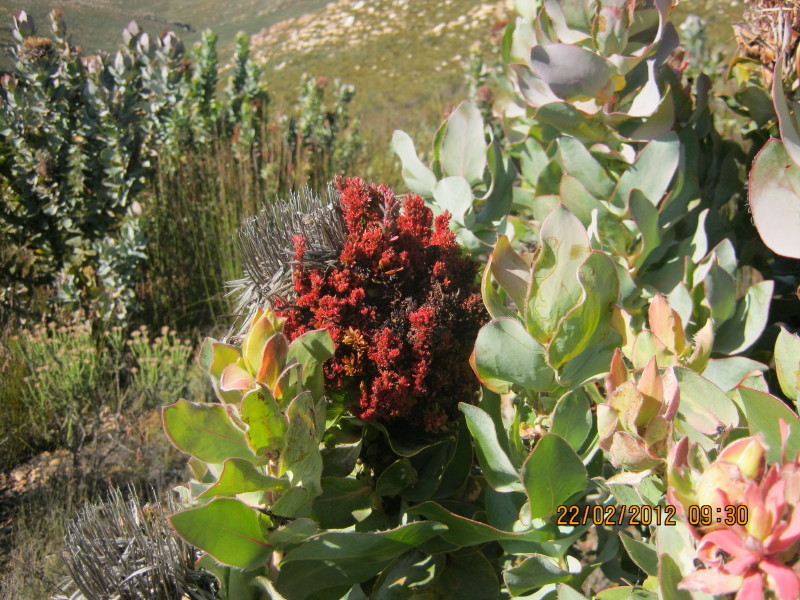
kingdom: Bacteria
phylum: Firmicutes
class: Bacilli
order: Acholeplasmatales
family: Acholeplasmataceae
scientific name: Acholeplasmataceae
